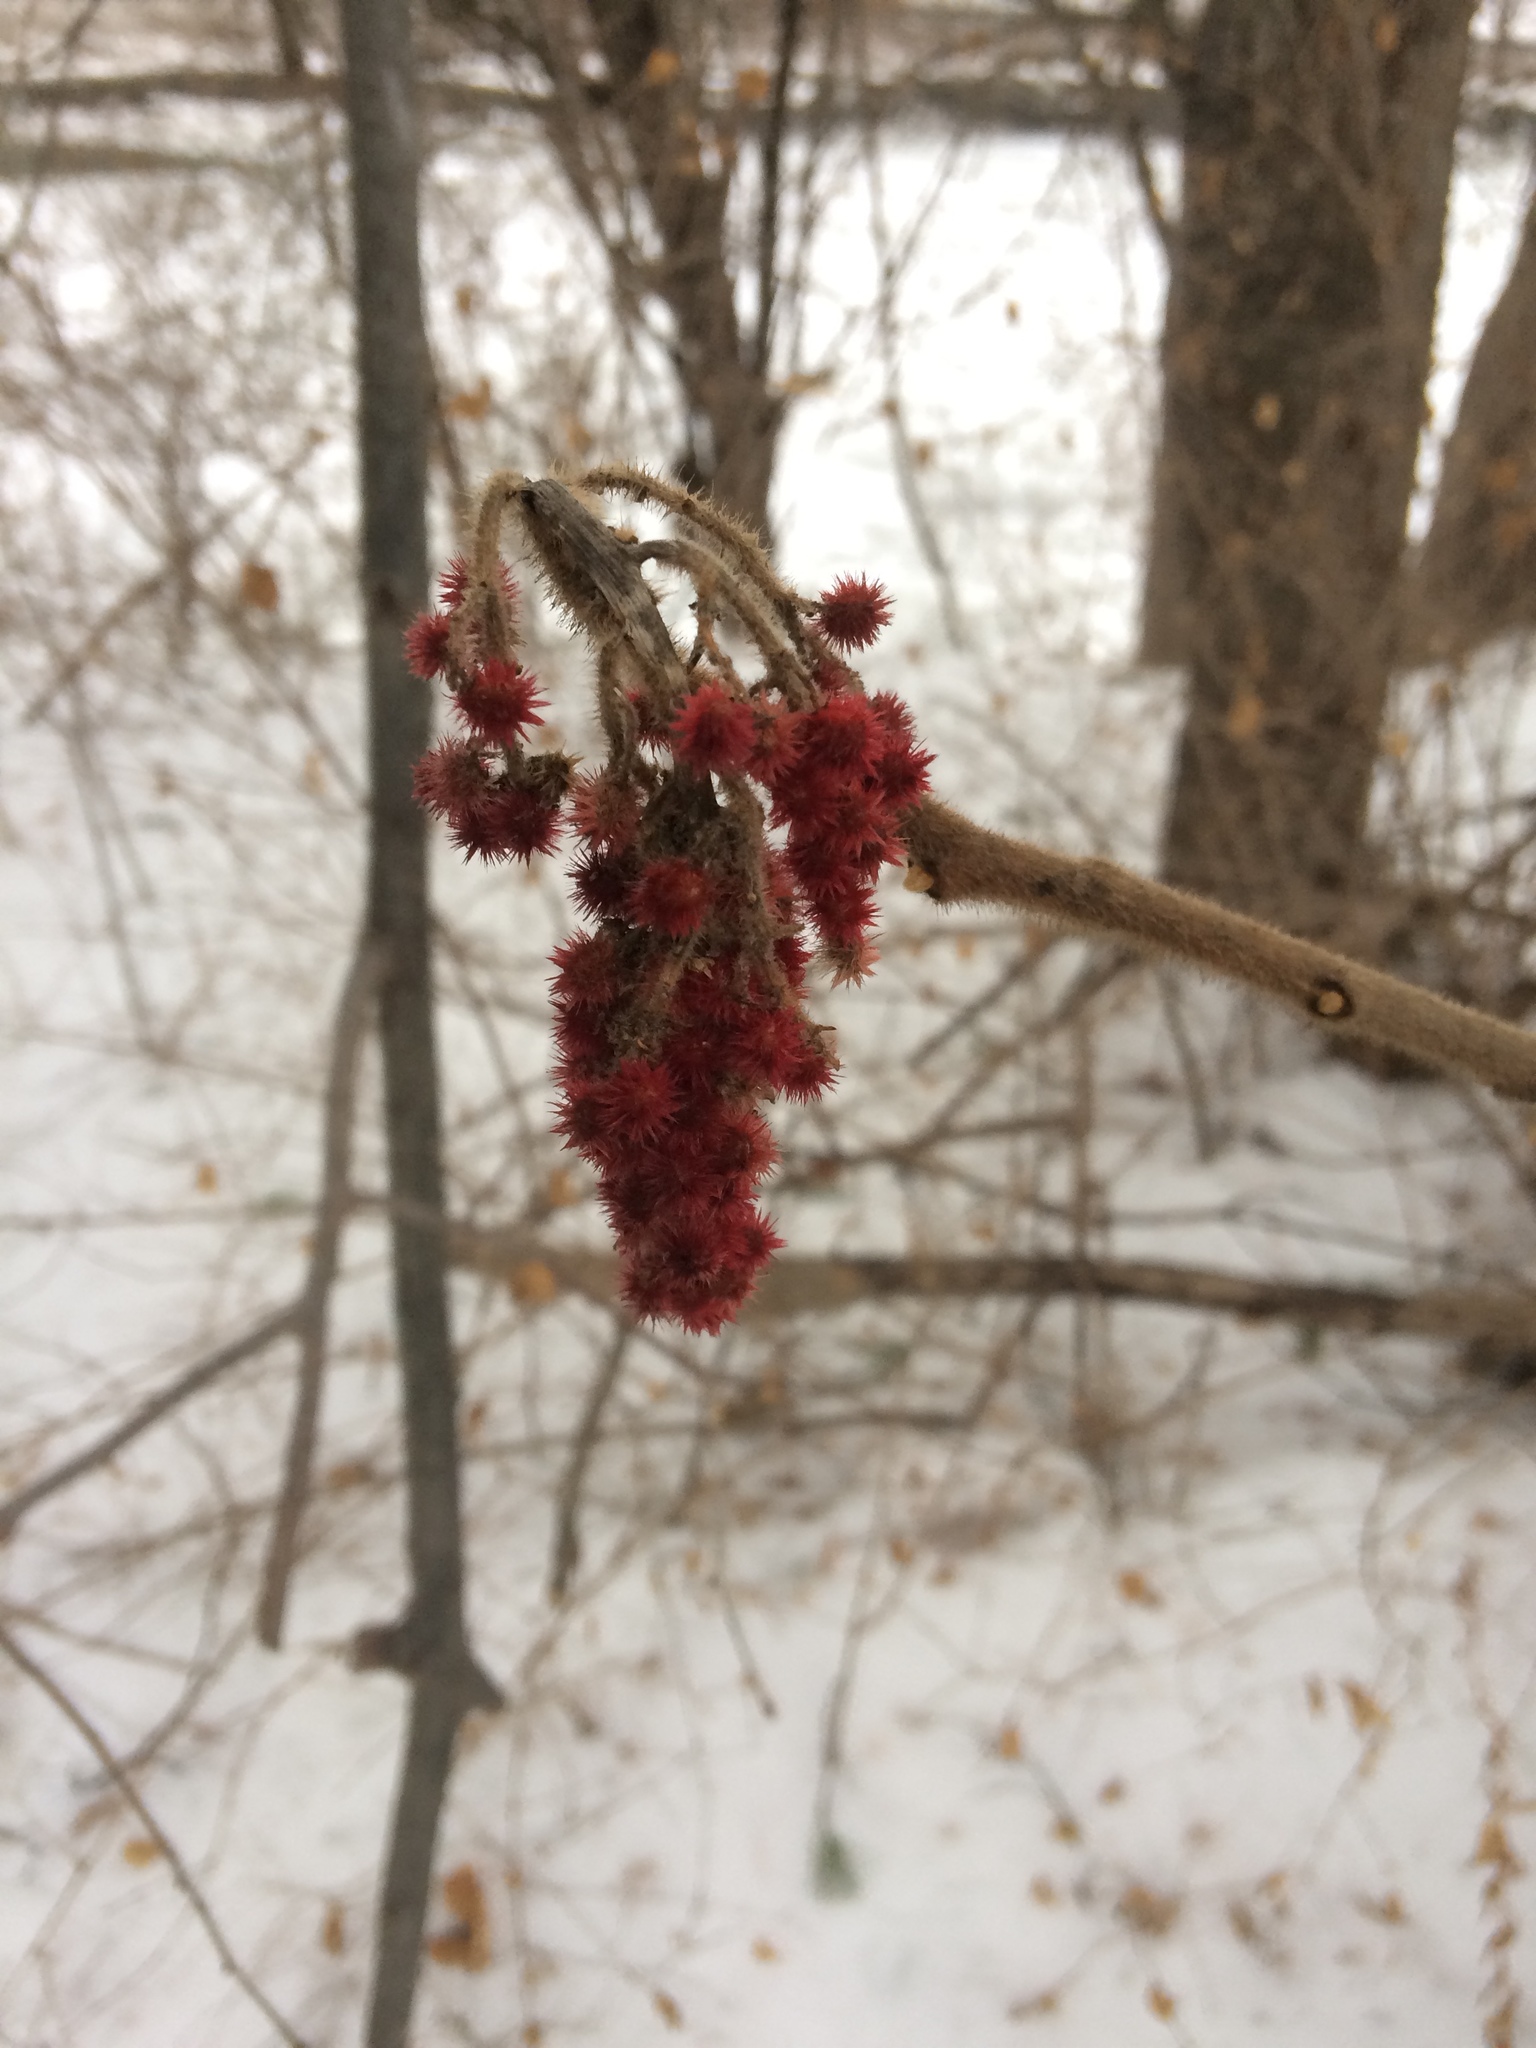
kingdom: Plantae
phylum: Tracheophyta
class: Magnoliopsida
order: Sapindales
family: Anacardiaceae
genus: Rhus
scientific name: Rhus typhina
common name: Staghorn sumac
